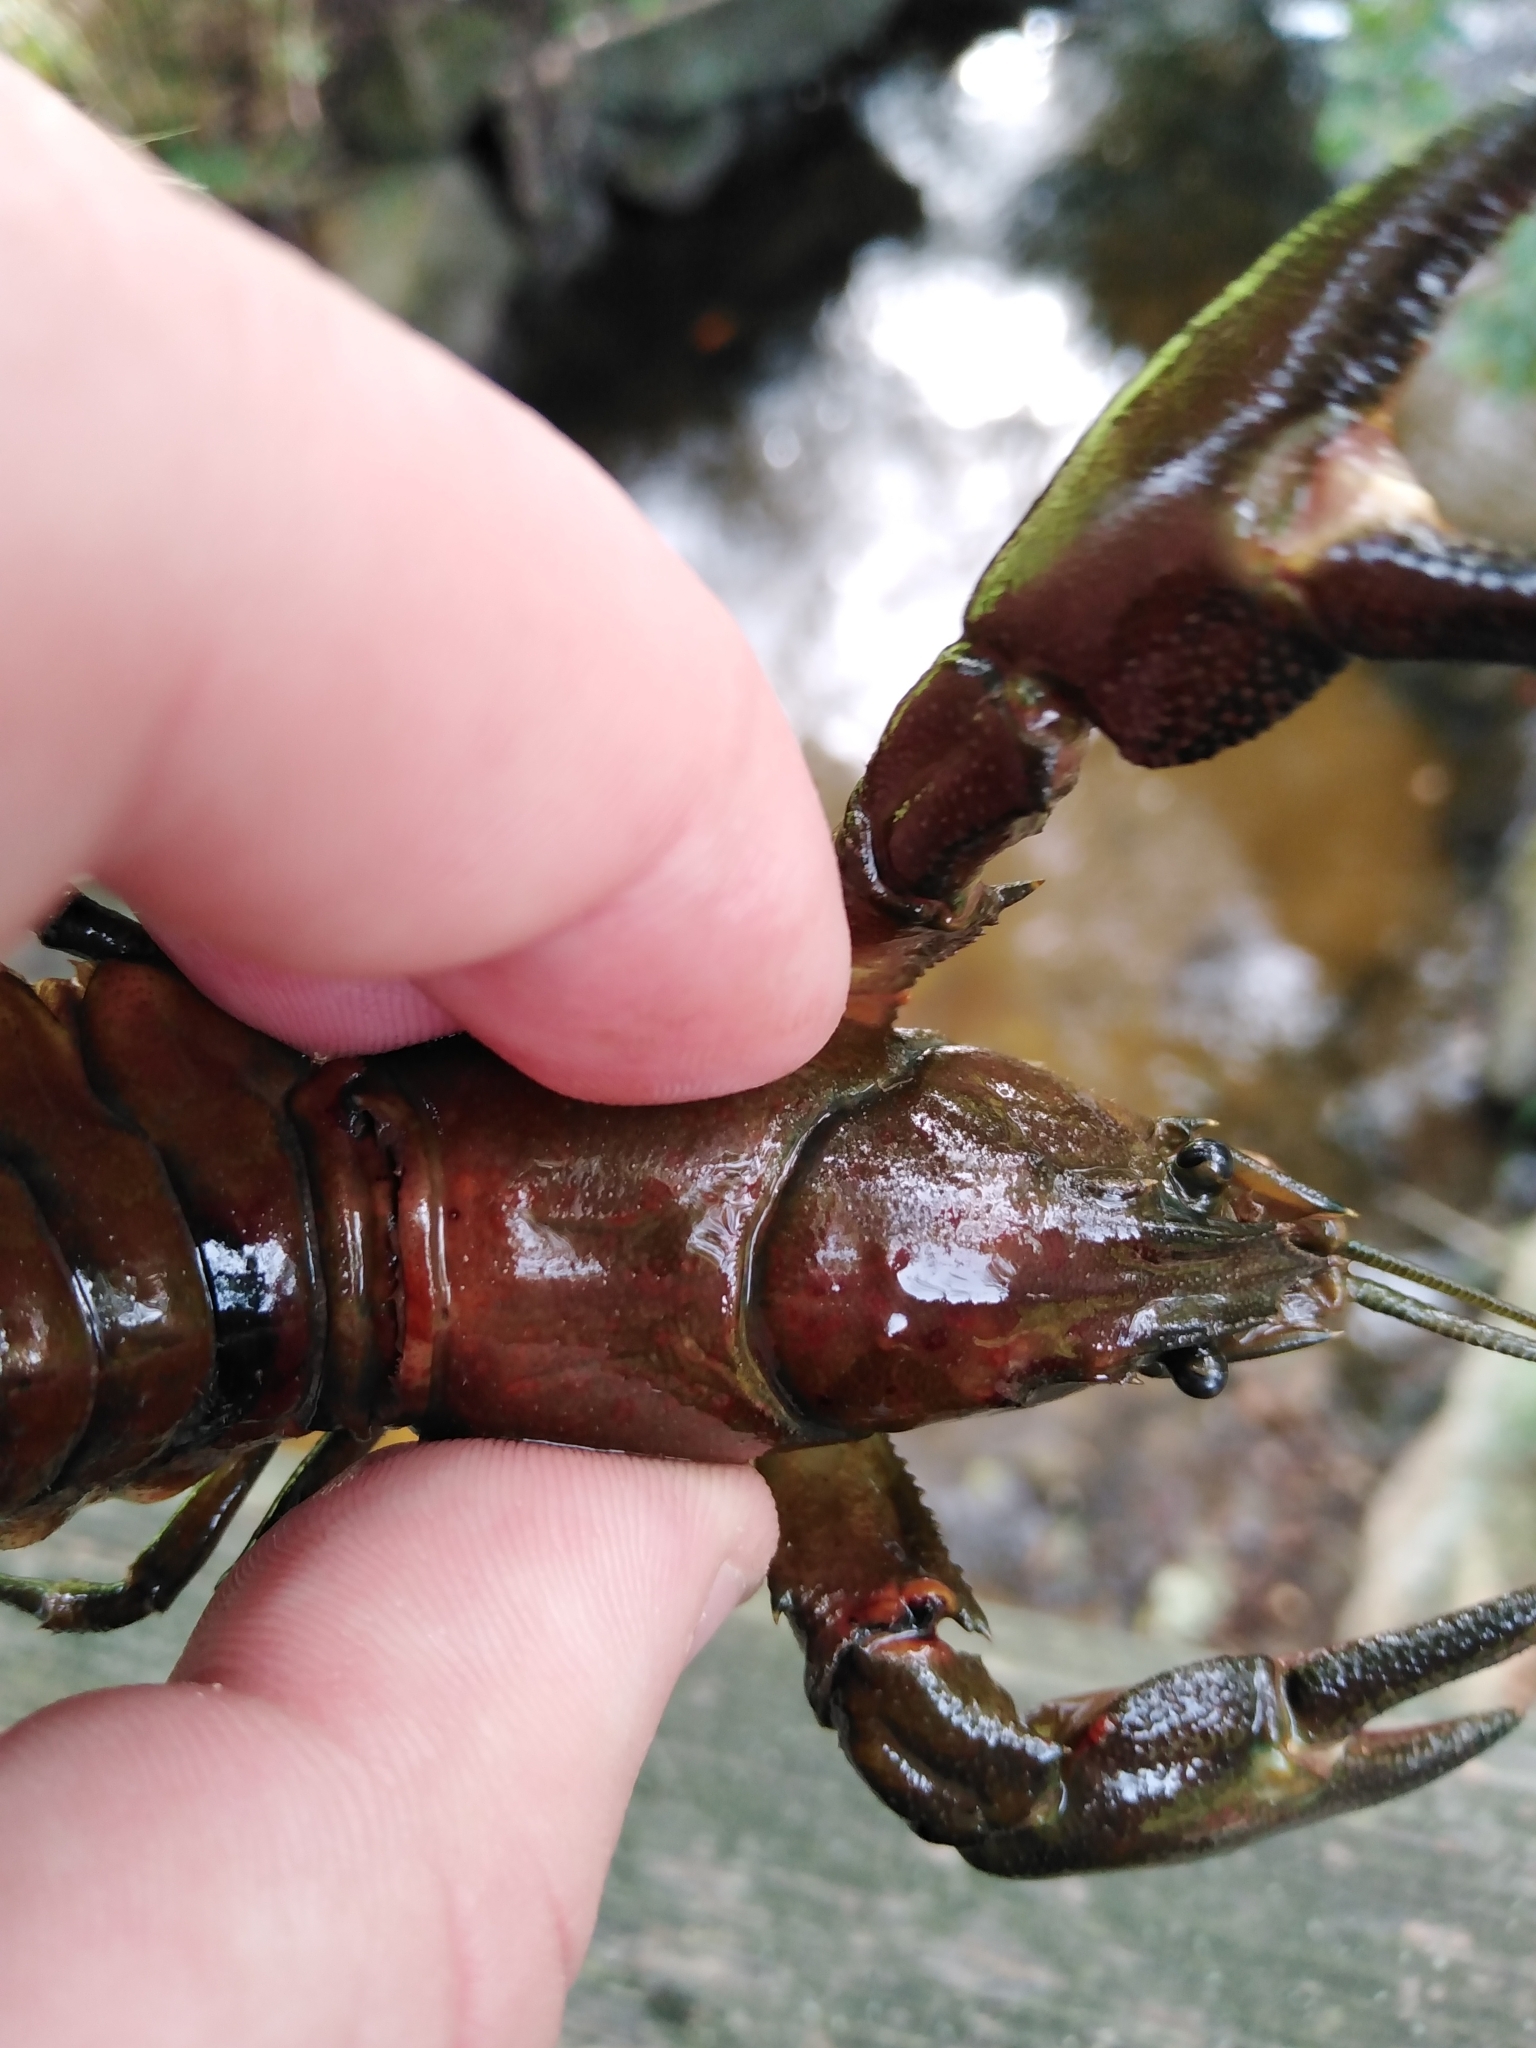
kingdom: Animalia
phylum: Arthropoda
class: Malacostraca
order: Decapoda
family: Astacidae
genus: Pacifastacus
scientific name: Pacifastacus leniusculus
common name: Signal crayfish
